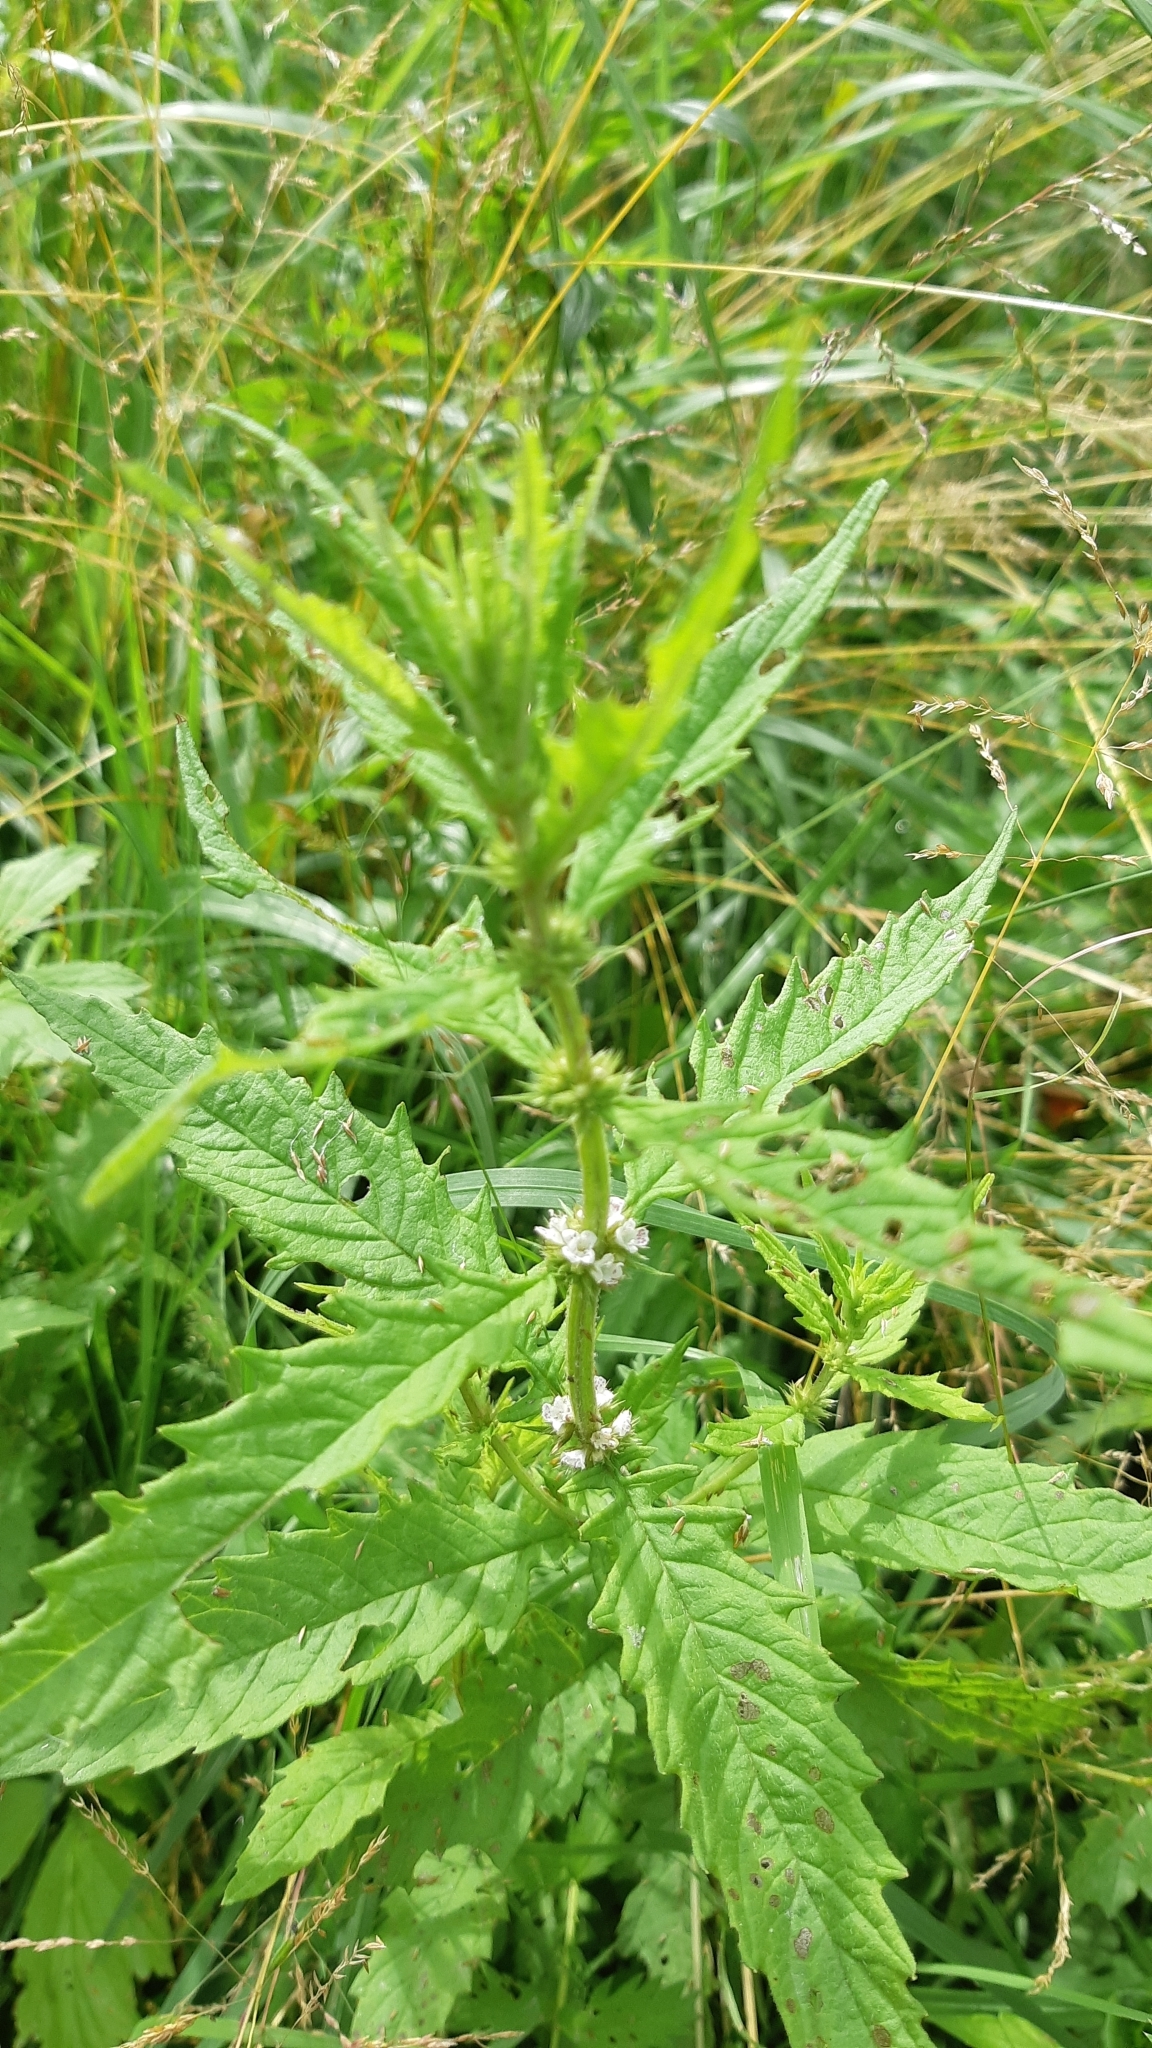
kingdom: Plantae
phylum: Tracheophyta
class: Magnoliopsida
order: Lamiales
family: Lamiaceae
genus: Lycopus
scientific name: Lycopus europaeus
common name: European bugleweed
